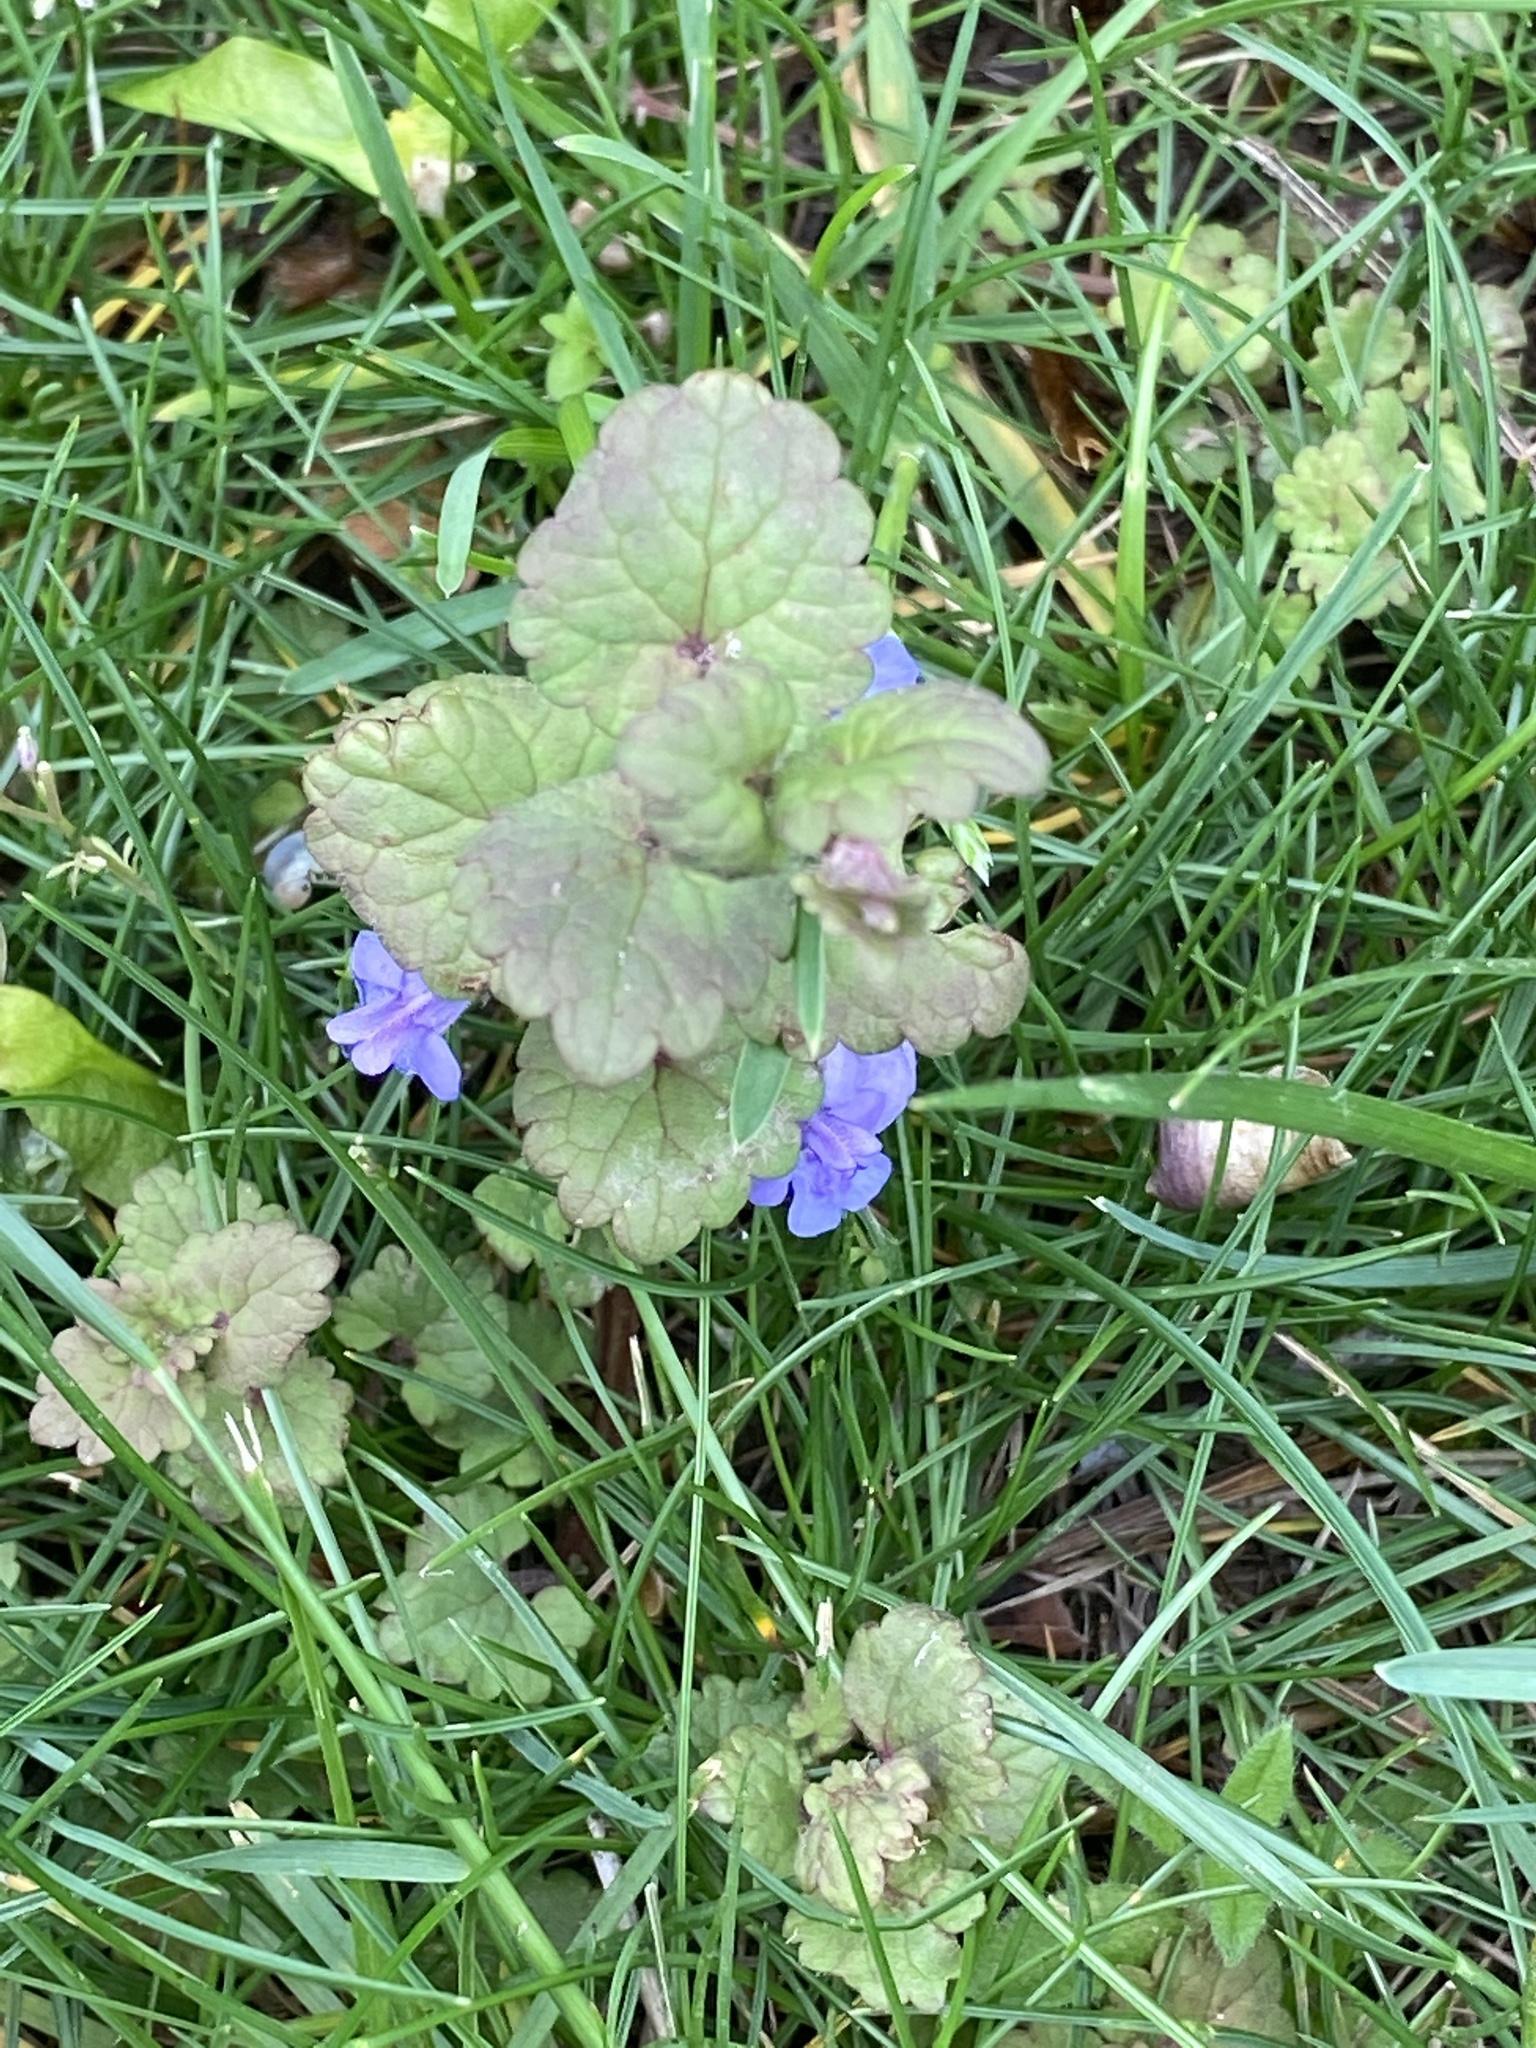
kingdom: Plantae
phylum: Tracheophyta
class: Magnoliopsida
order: Lamiales
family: Lamiaceae
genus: Glechoma
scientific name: Glechoma hederacea
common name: Ground ivy
